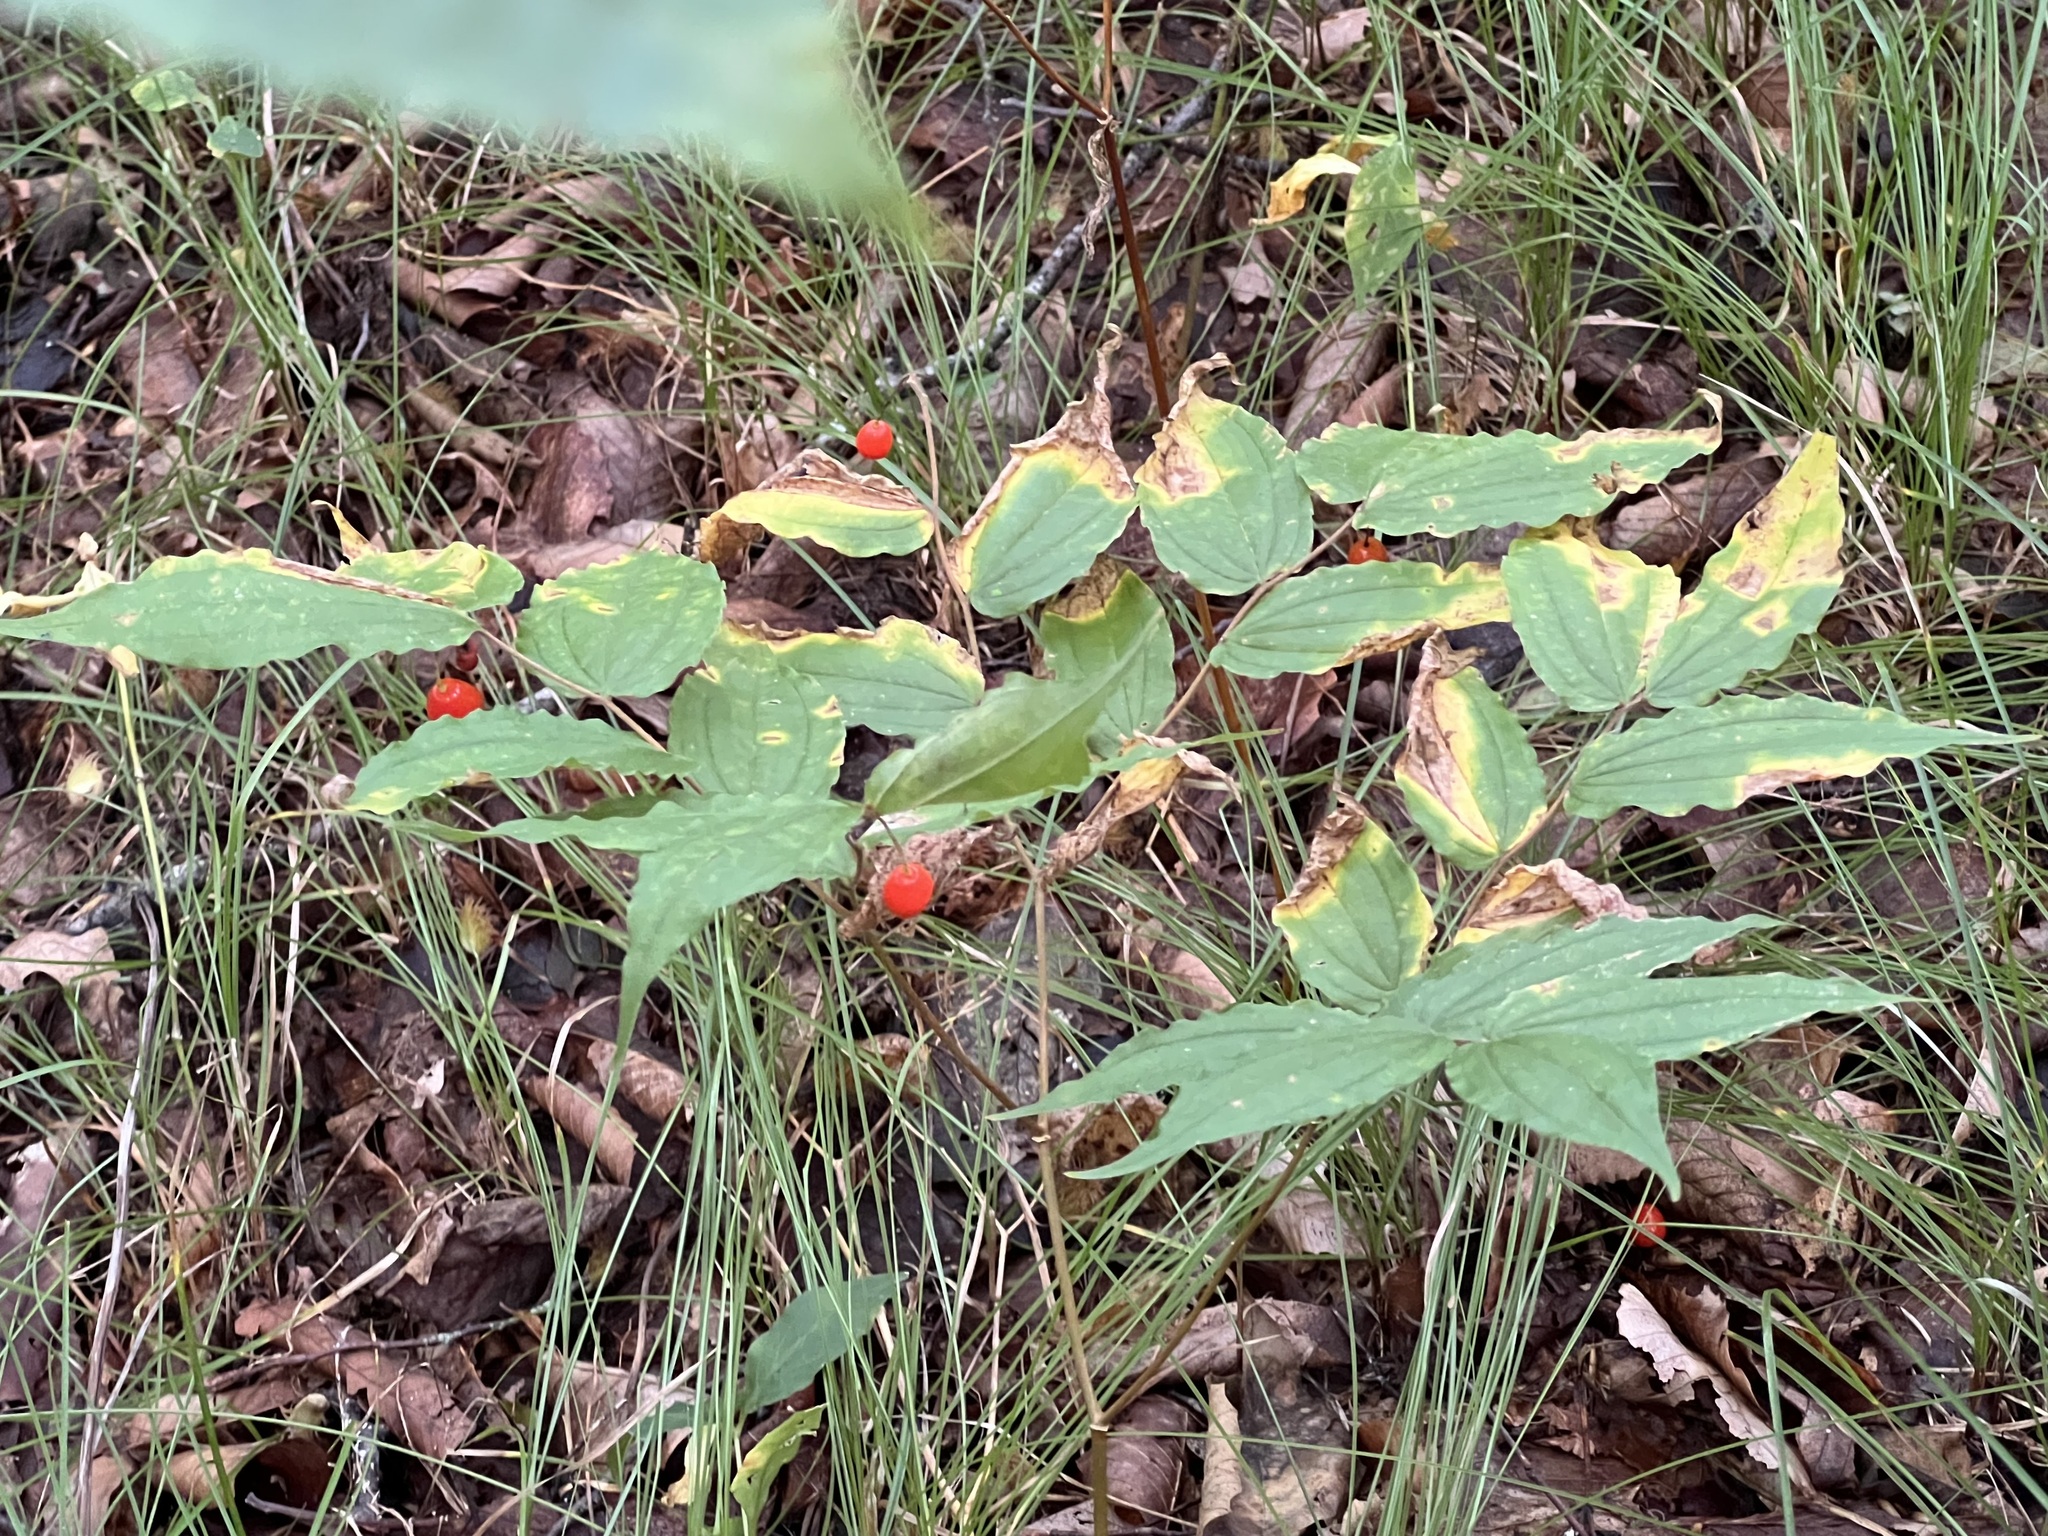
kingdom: Plantae
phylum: Tracheophyta
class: Liliopsida
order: Liliales
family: Liliaceae
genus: Prosartes
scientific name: Prosartes lanuginosa
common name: Hairy mandarin
